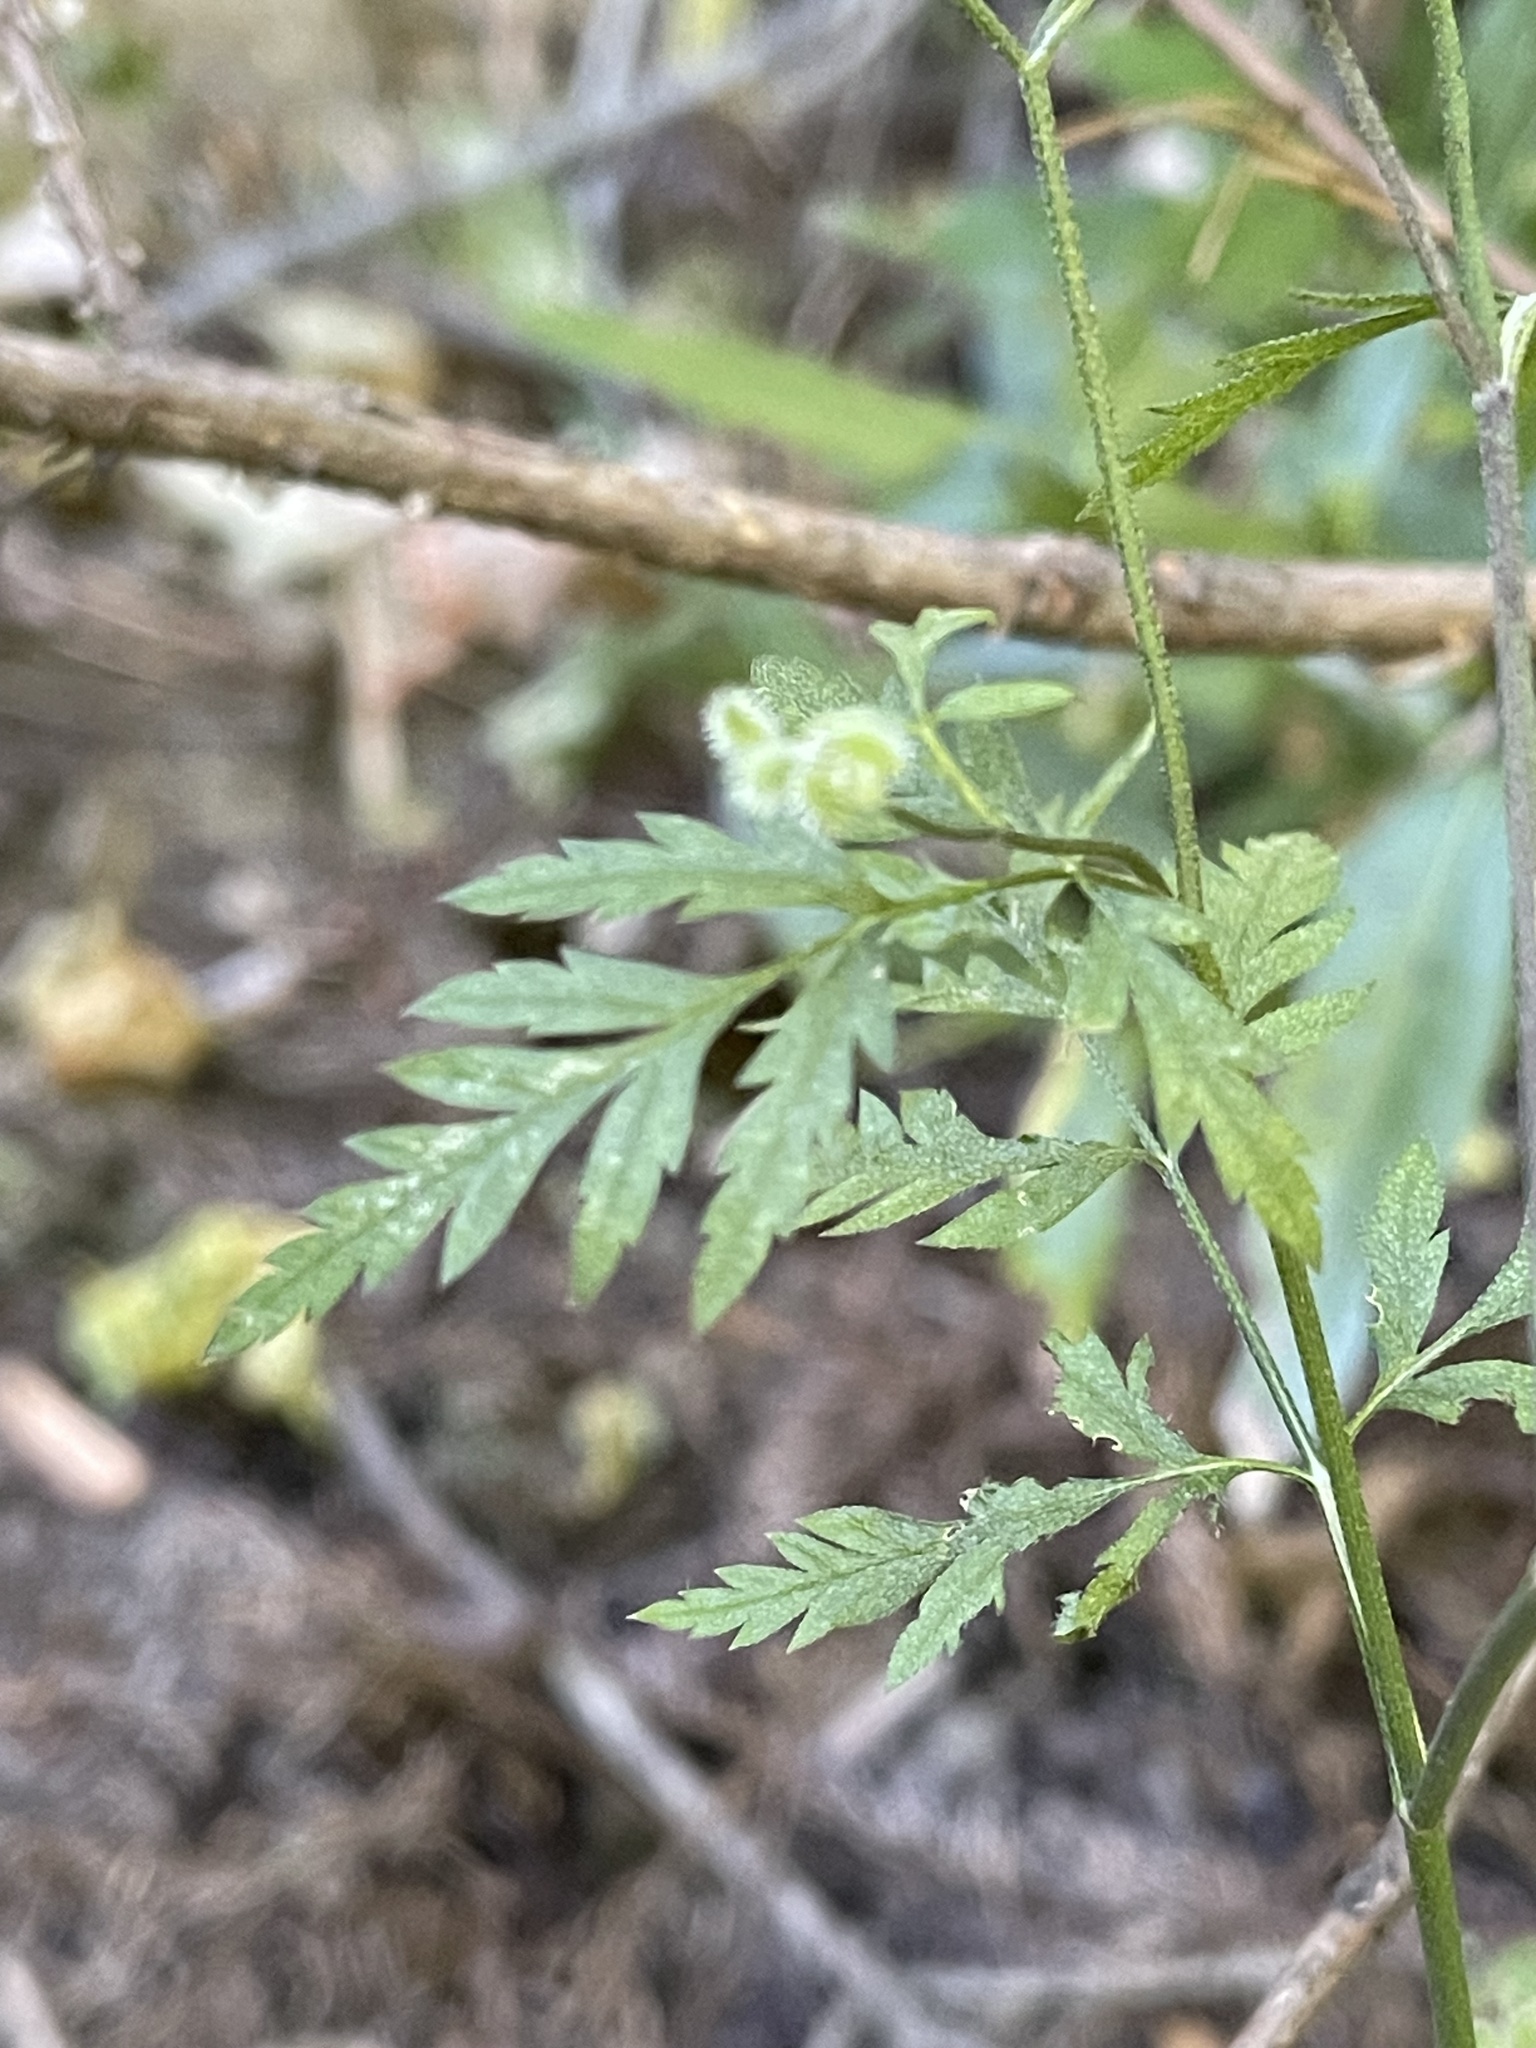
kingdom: Plantae
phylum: Tracheophyta
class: Magnoliopsida
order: Apiales
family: Apiaceae
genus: Torilis
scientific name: Torilis arvensis
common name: Spreading hedge-parsley
